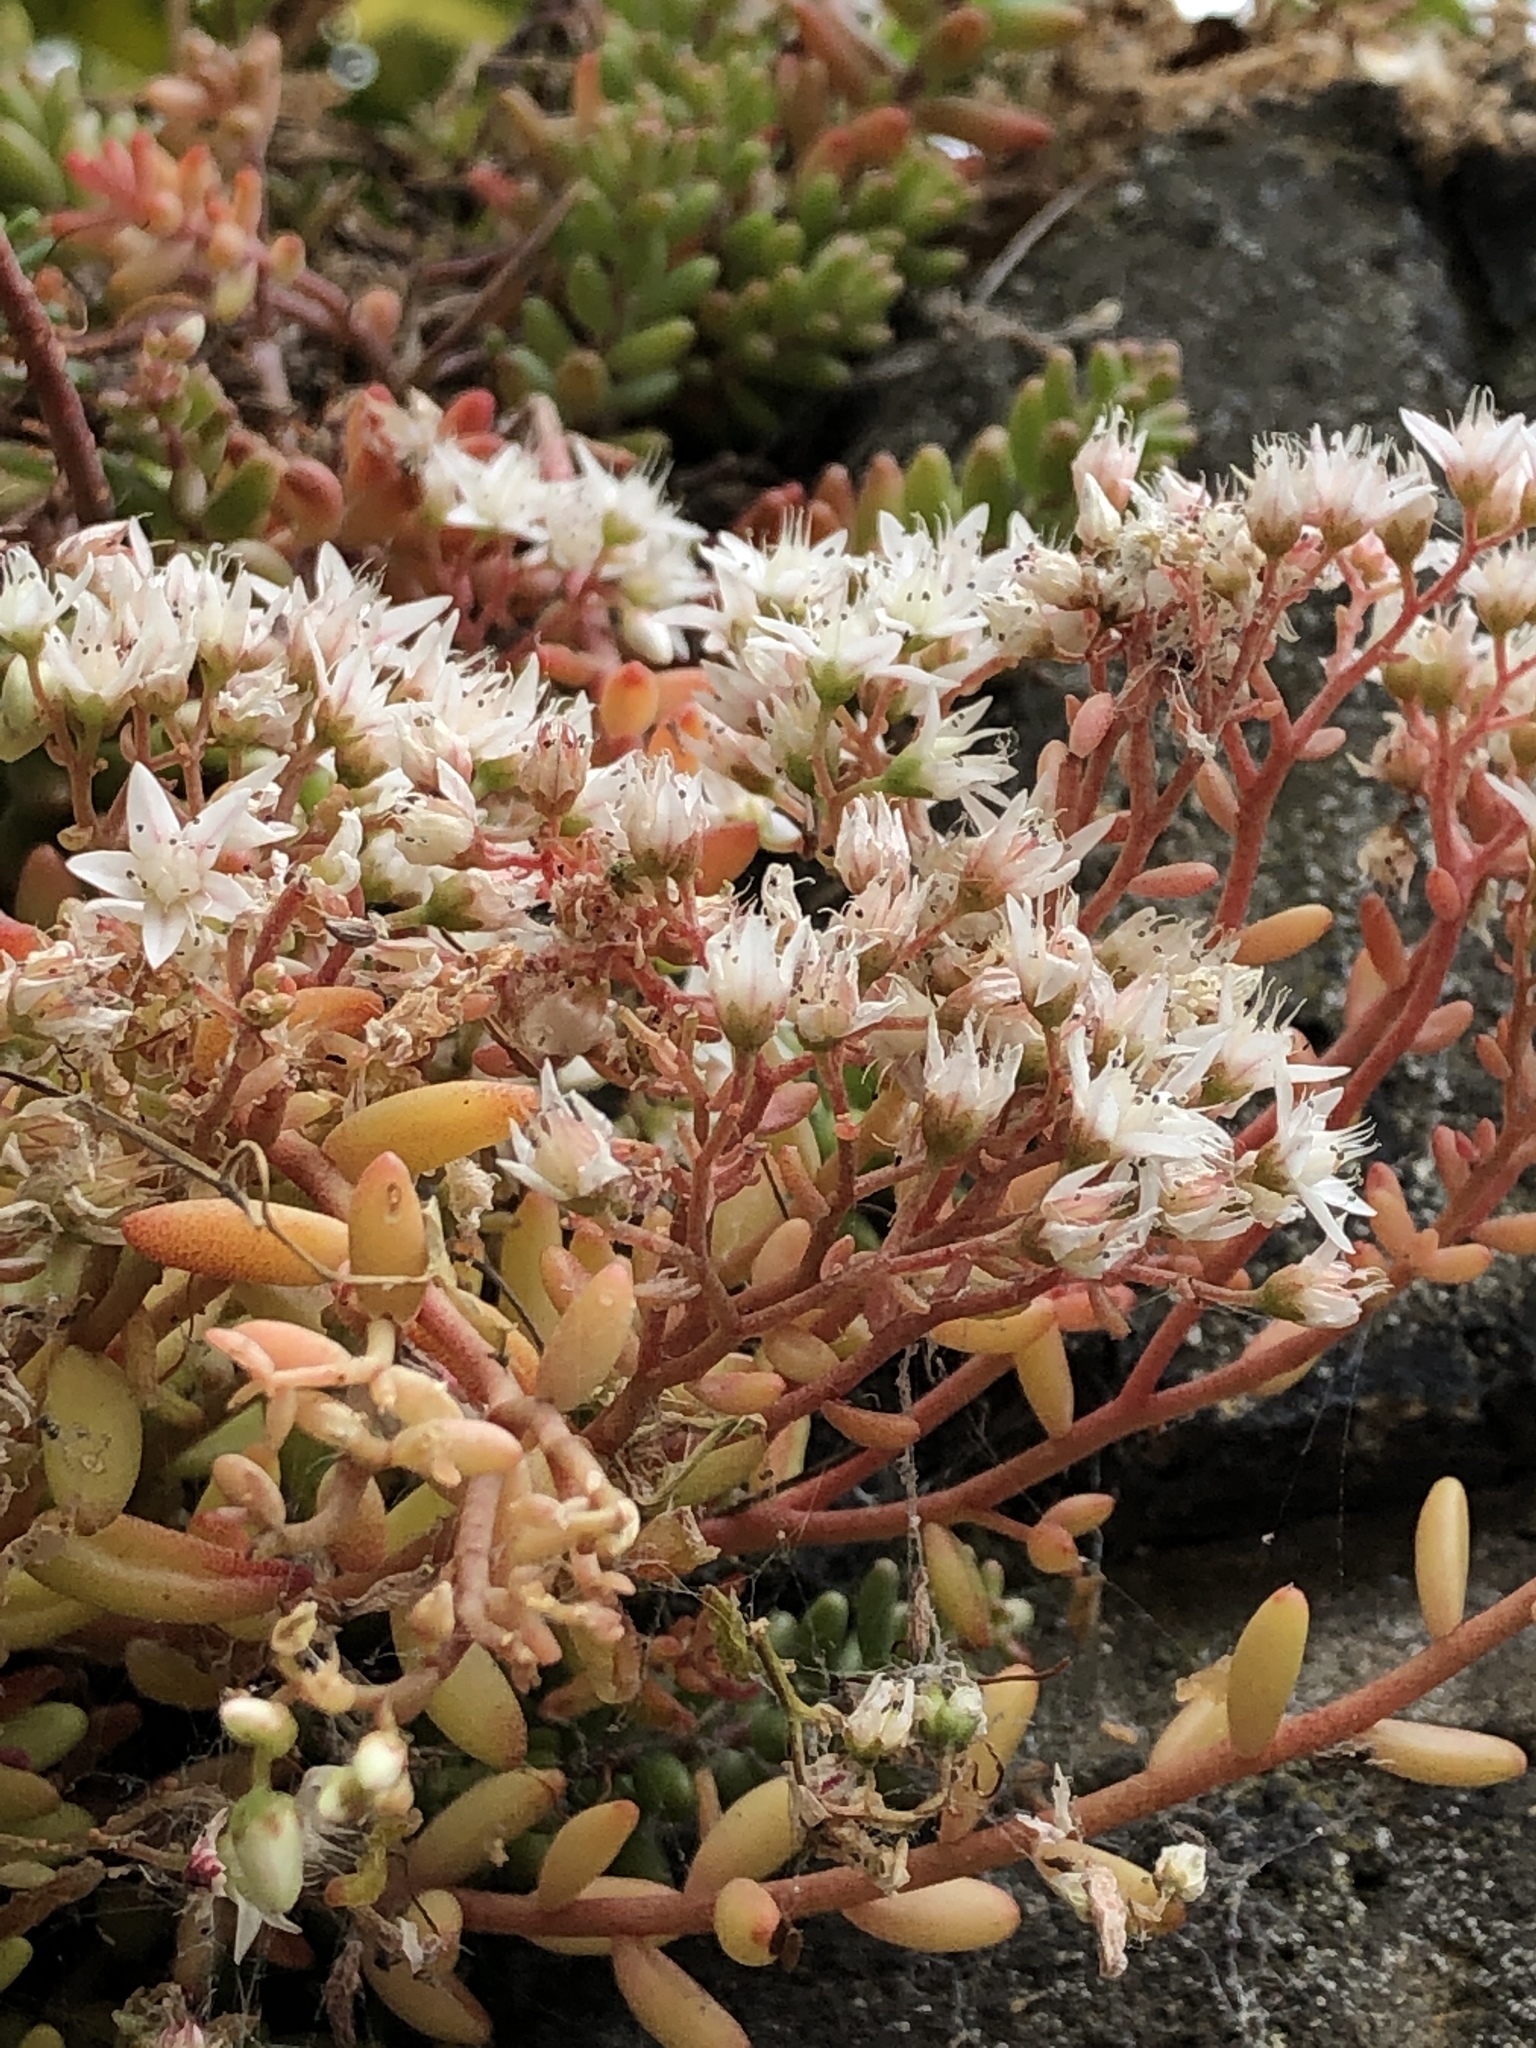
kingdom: Plantae
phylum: Tracheophyta
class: Magnoliopsida
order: Saxifragales
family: Crassulaceae
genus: Sedum
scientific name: Sedum album
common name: White stonecrop
